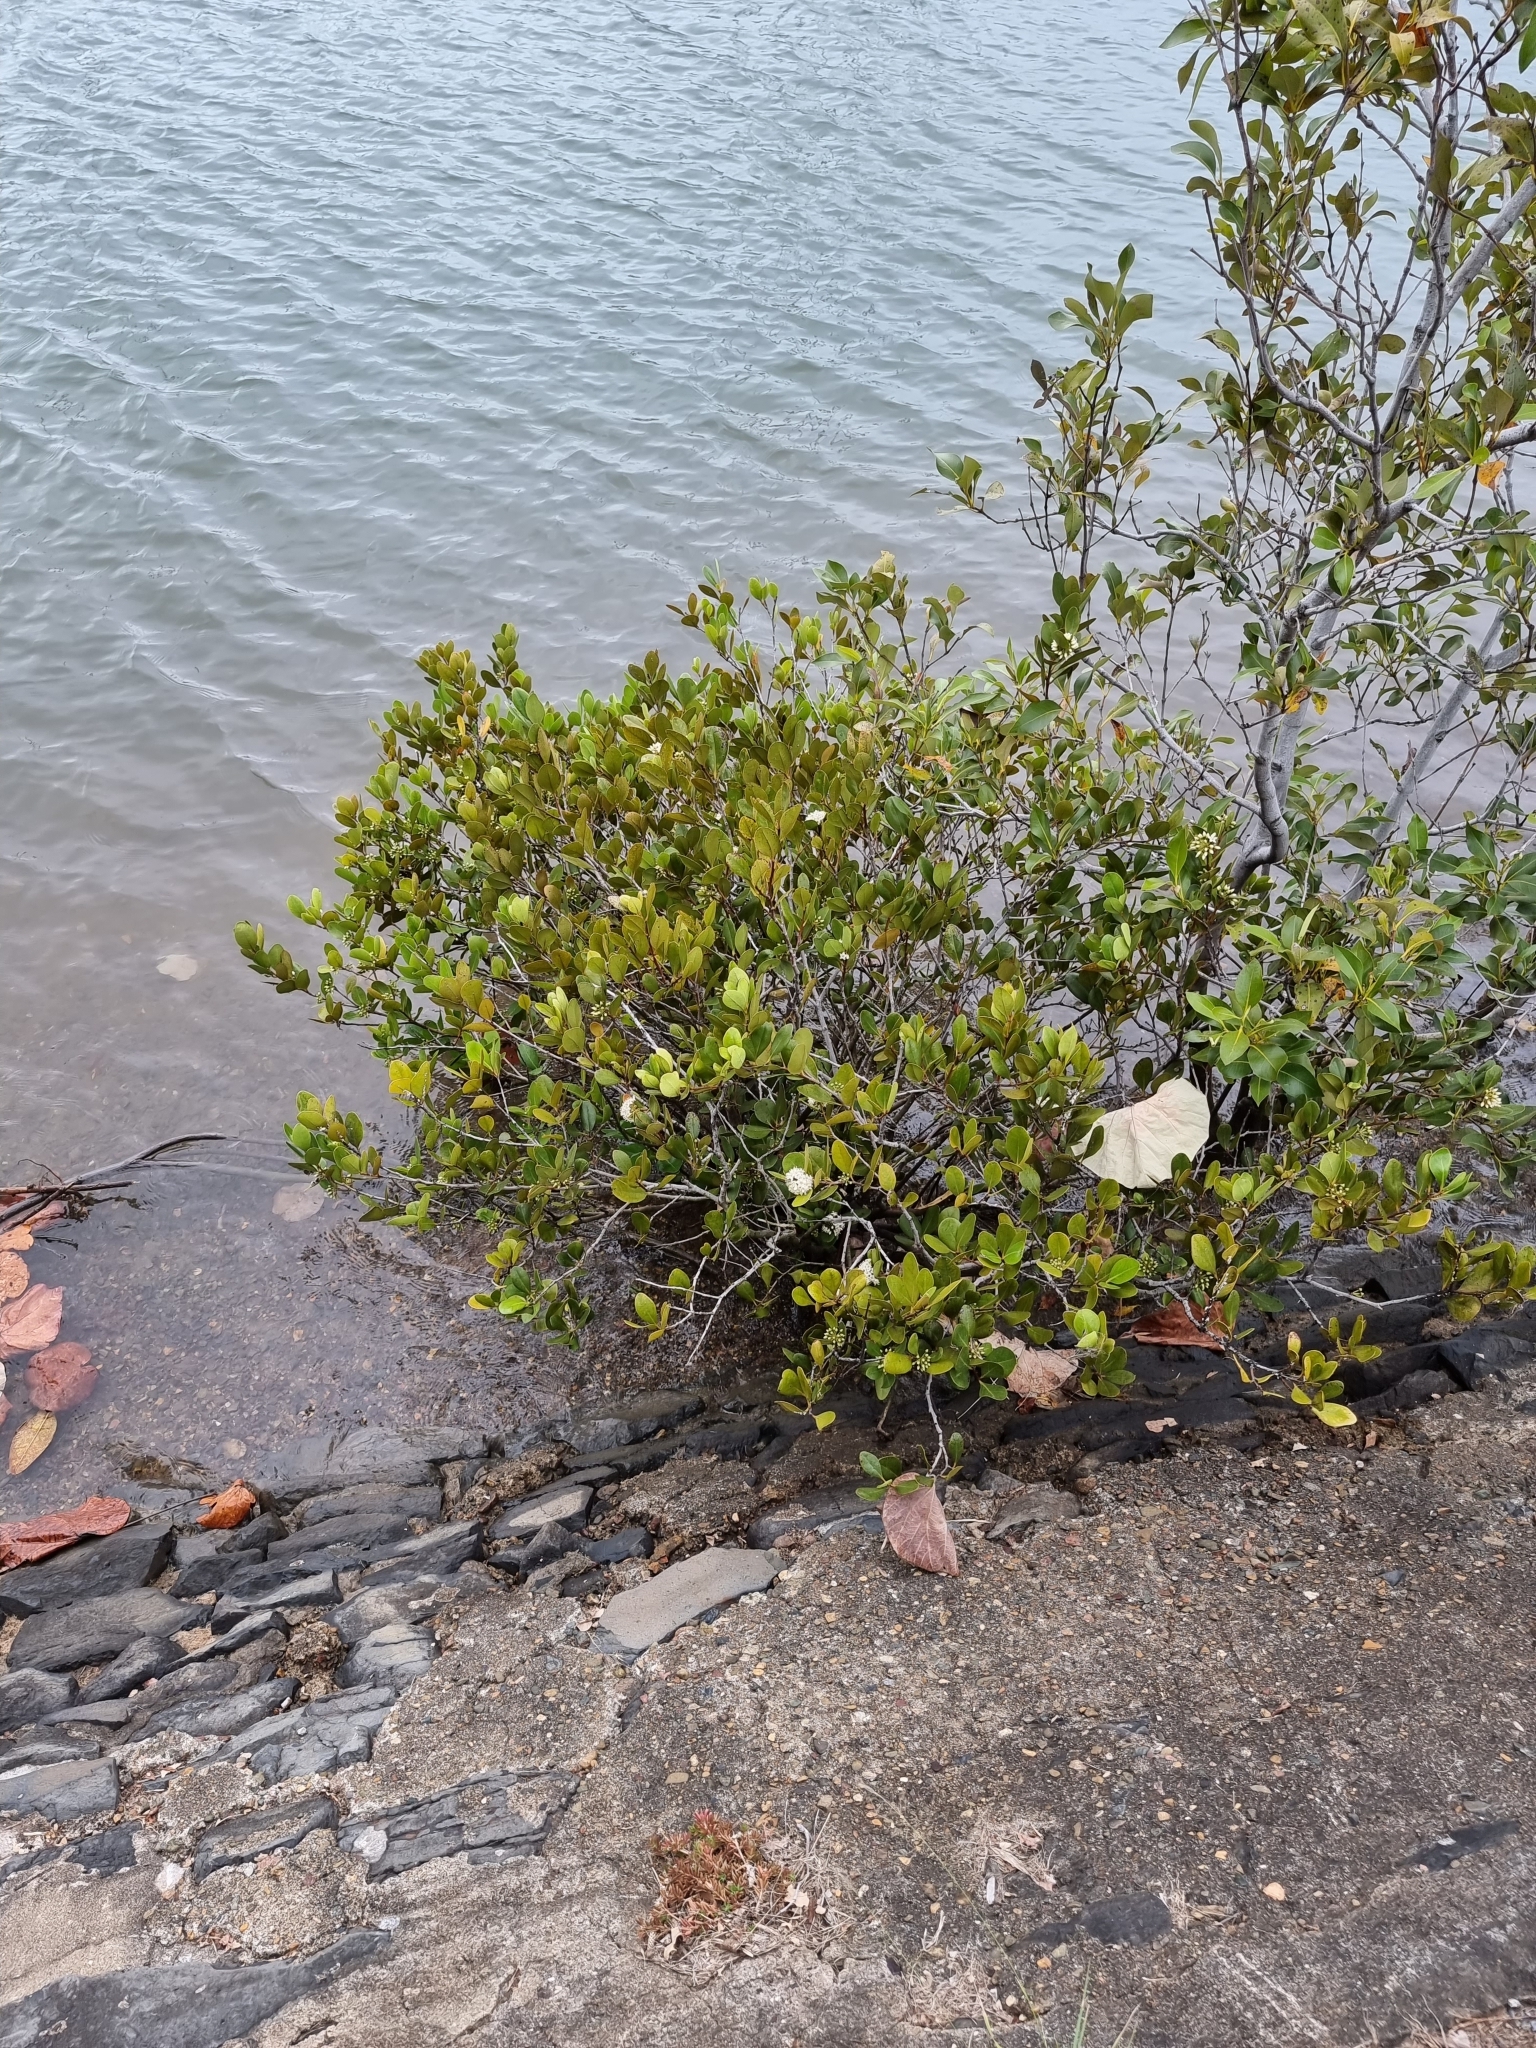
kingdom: Plantae
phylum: Tracheophyta
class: Magnoliopsida
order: Ericales
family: Primulaceae
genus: Aegiceras
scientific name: Aegiceras corniculatum
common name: River mangrove
